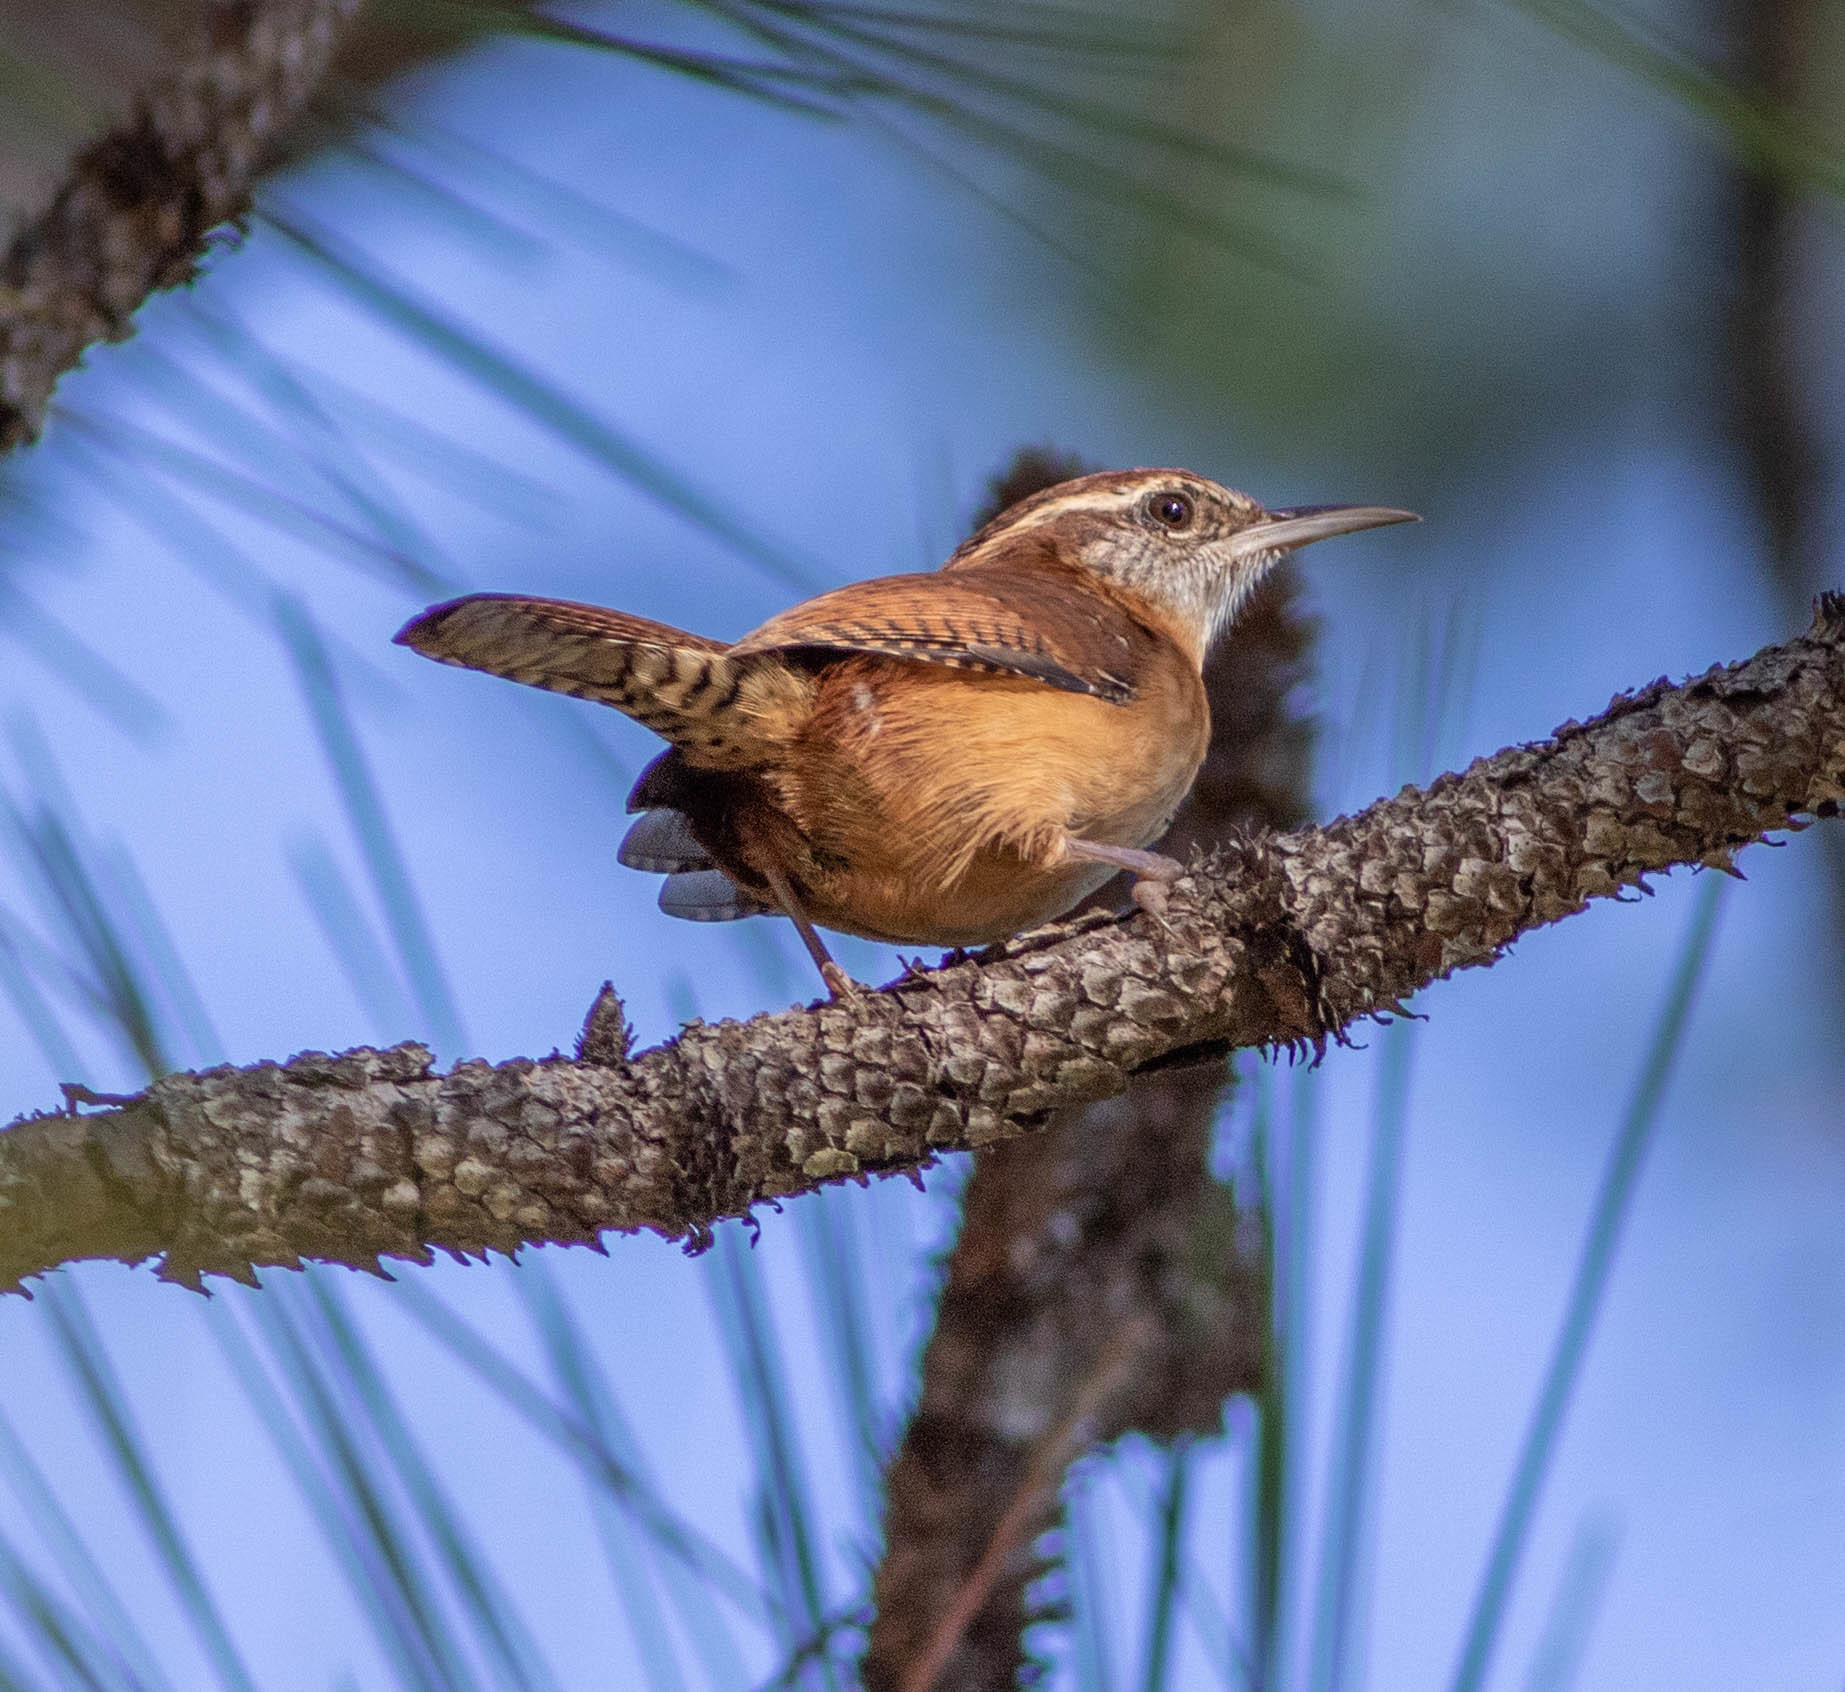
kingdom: Animalia
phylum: Chordata
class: Aves
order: Passeriformes
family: Troglodytidae
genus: Thryothorus
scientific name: Thryothorus ludovicianus
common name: Carolina wren
